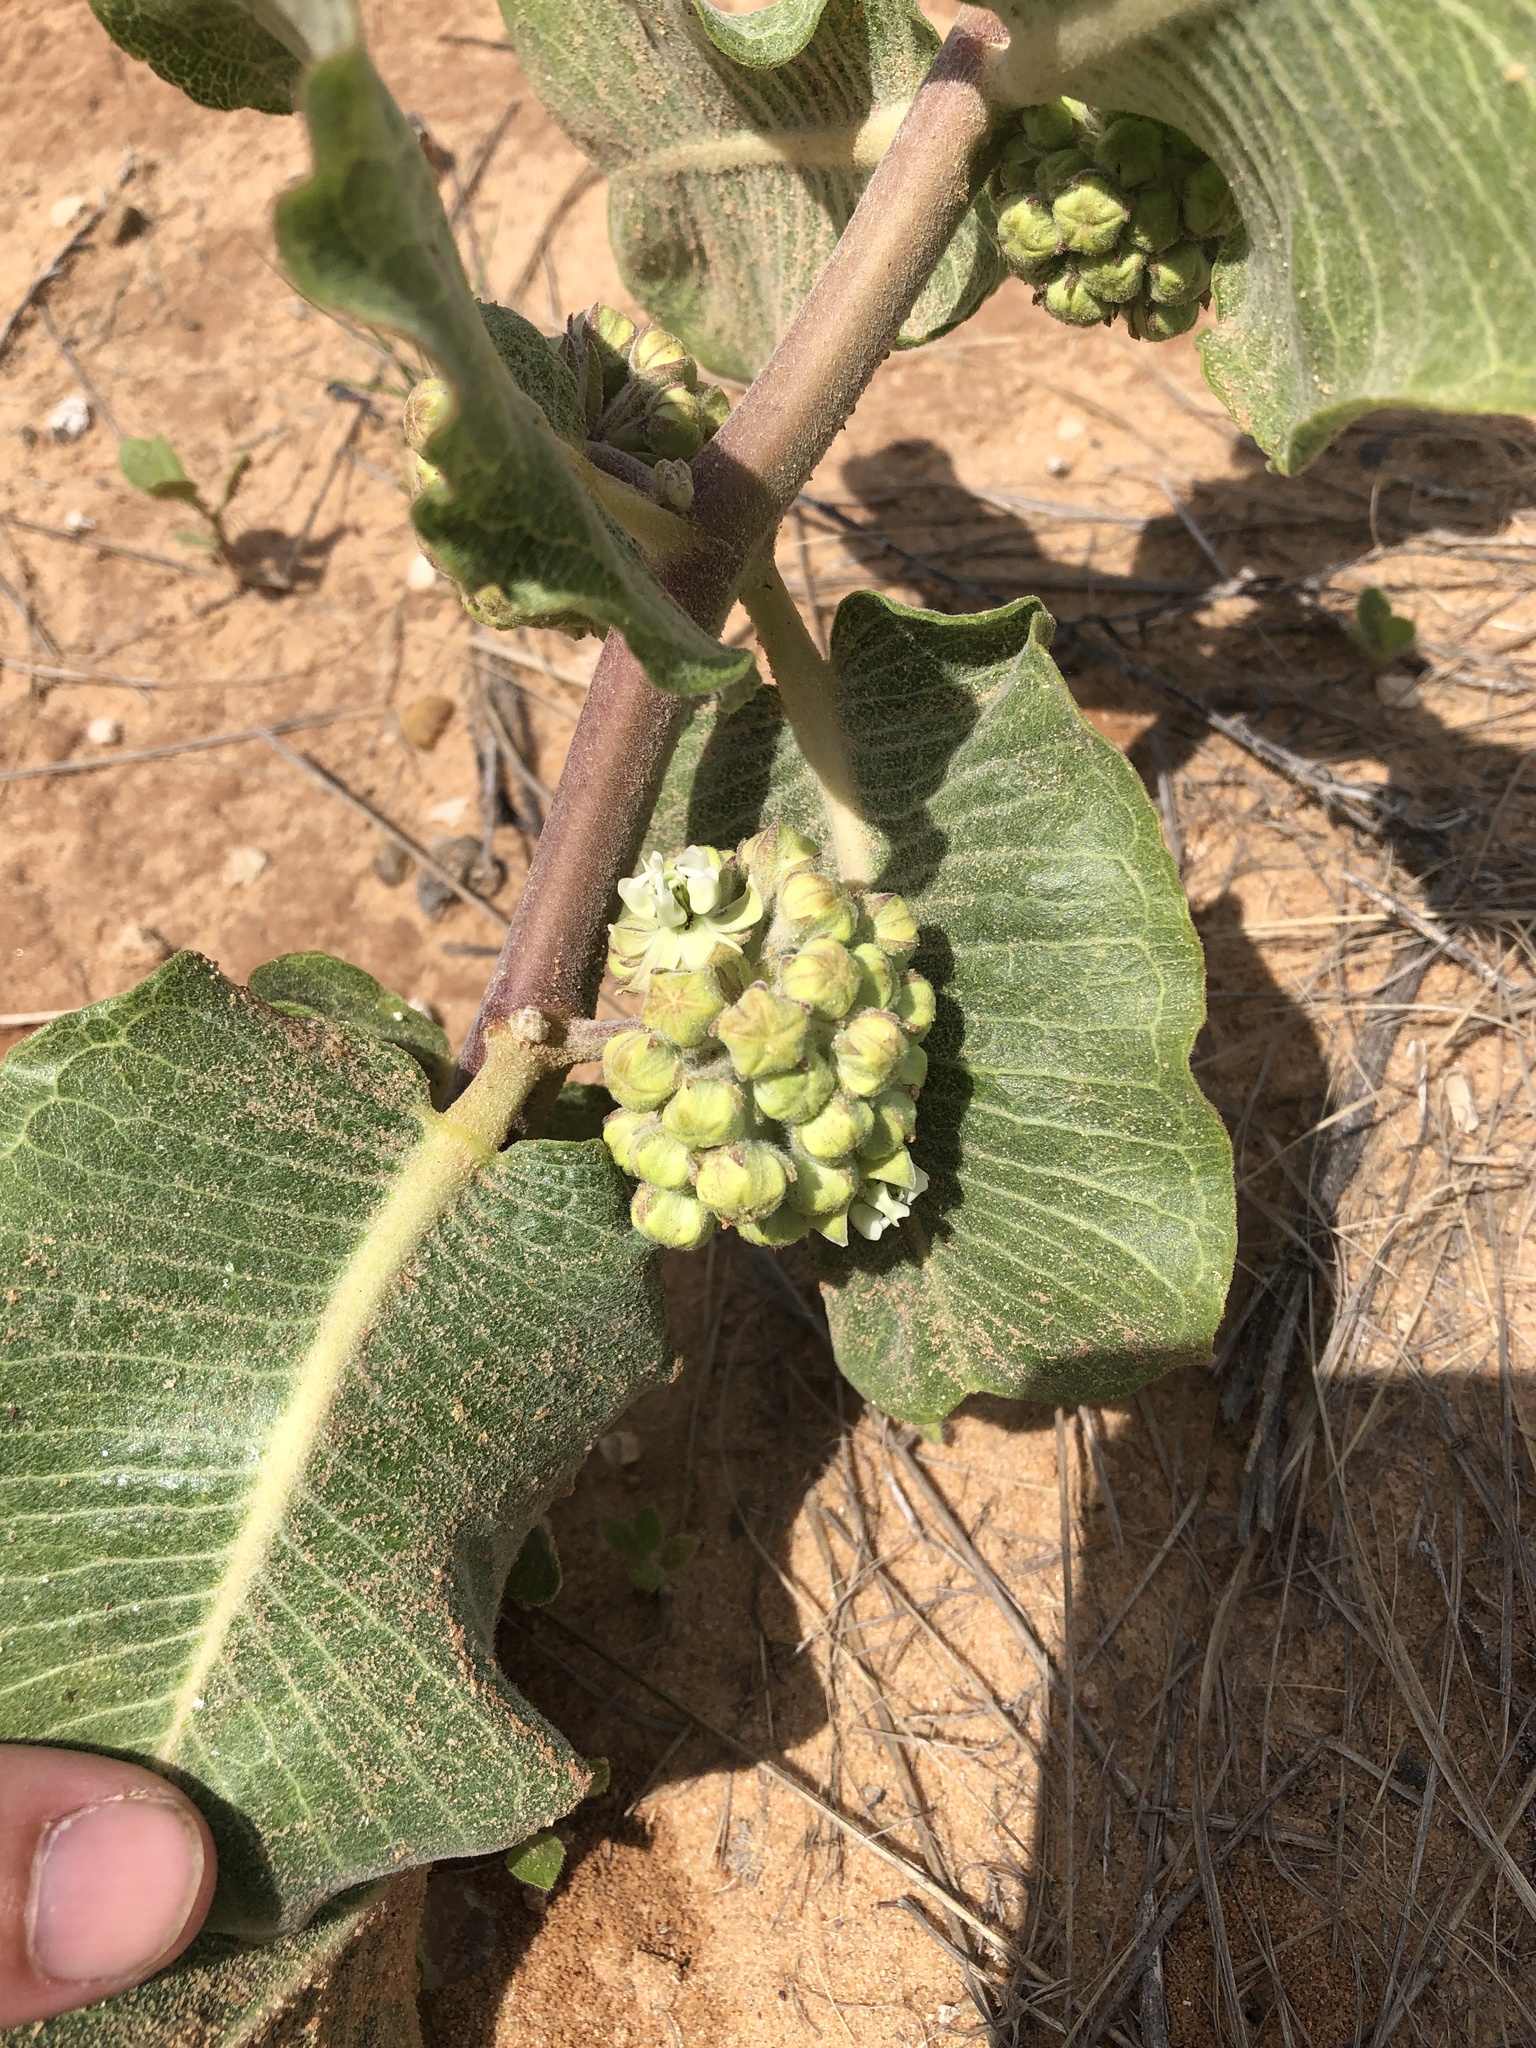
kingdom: Plantae
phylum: Tracheophyta
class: Magnoliopsida
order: Gentianales
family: Apocynaceae
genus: Asclepias
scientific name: Asclepias arenaria
